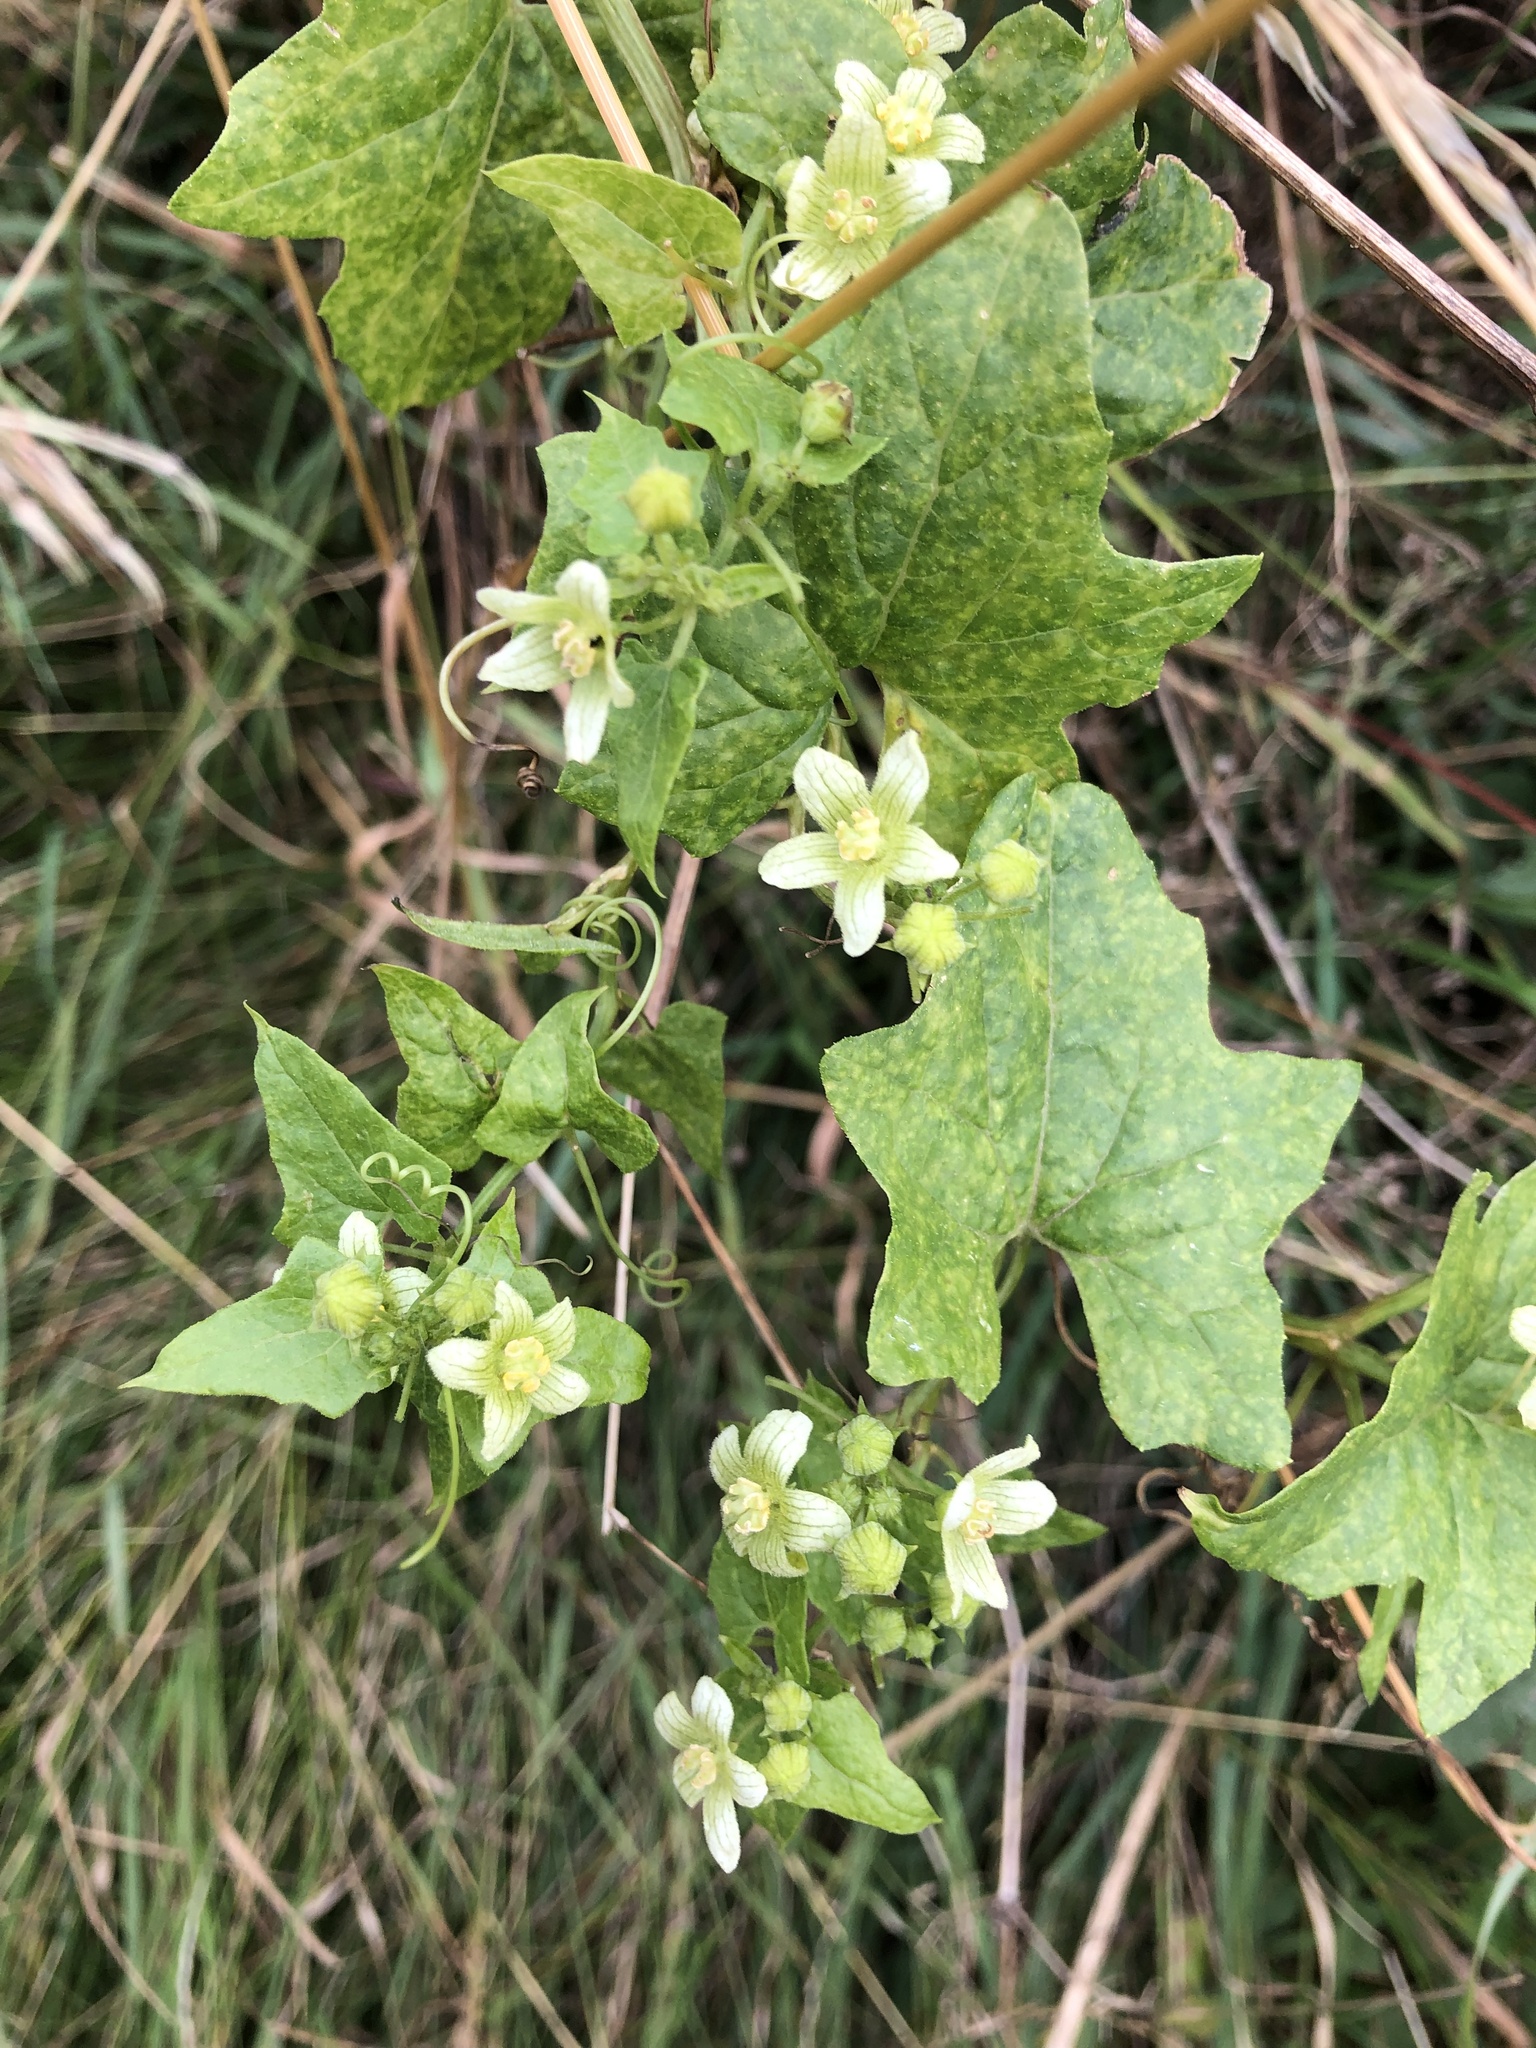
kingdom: Plantae
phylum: Tracheophyta
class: Magnoliopsida
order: Cucurbitales
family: Cucurbitaceae
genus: Bryonia
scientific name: Bryonia cretica
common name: Cretan bryony
